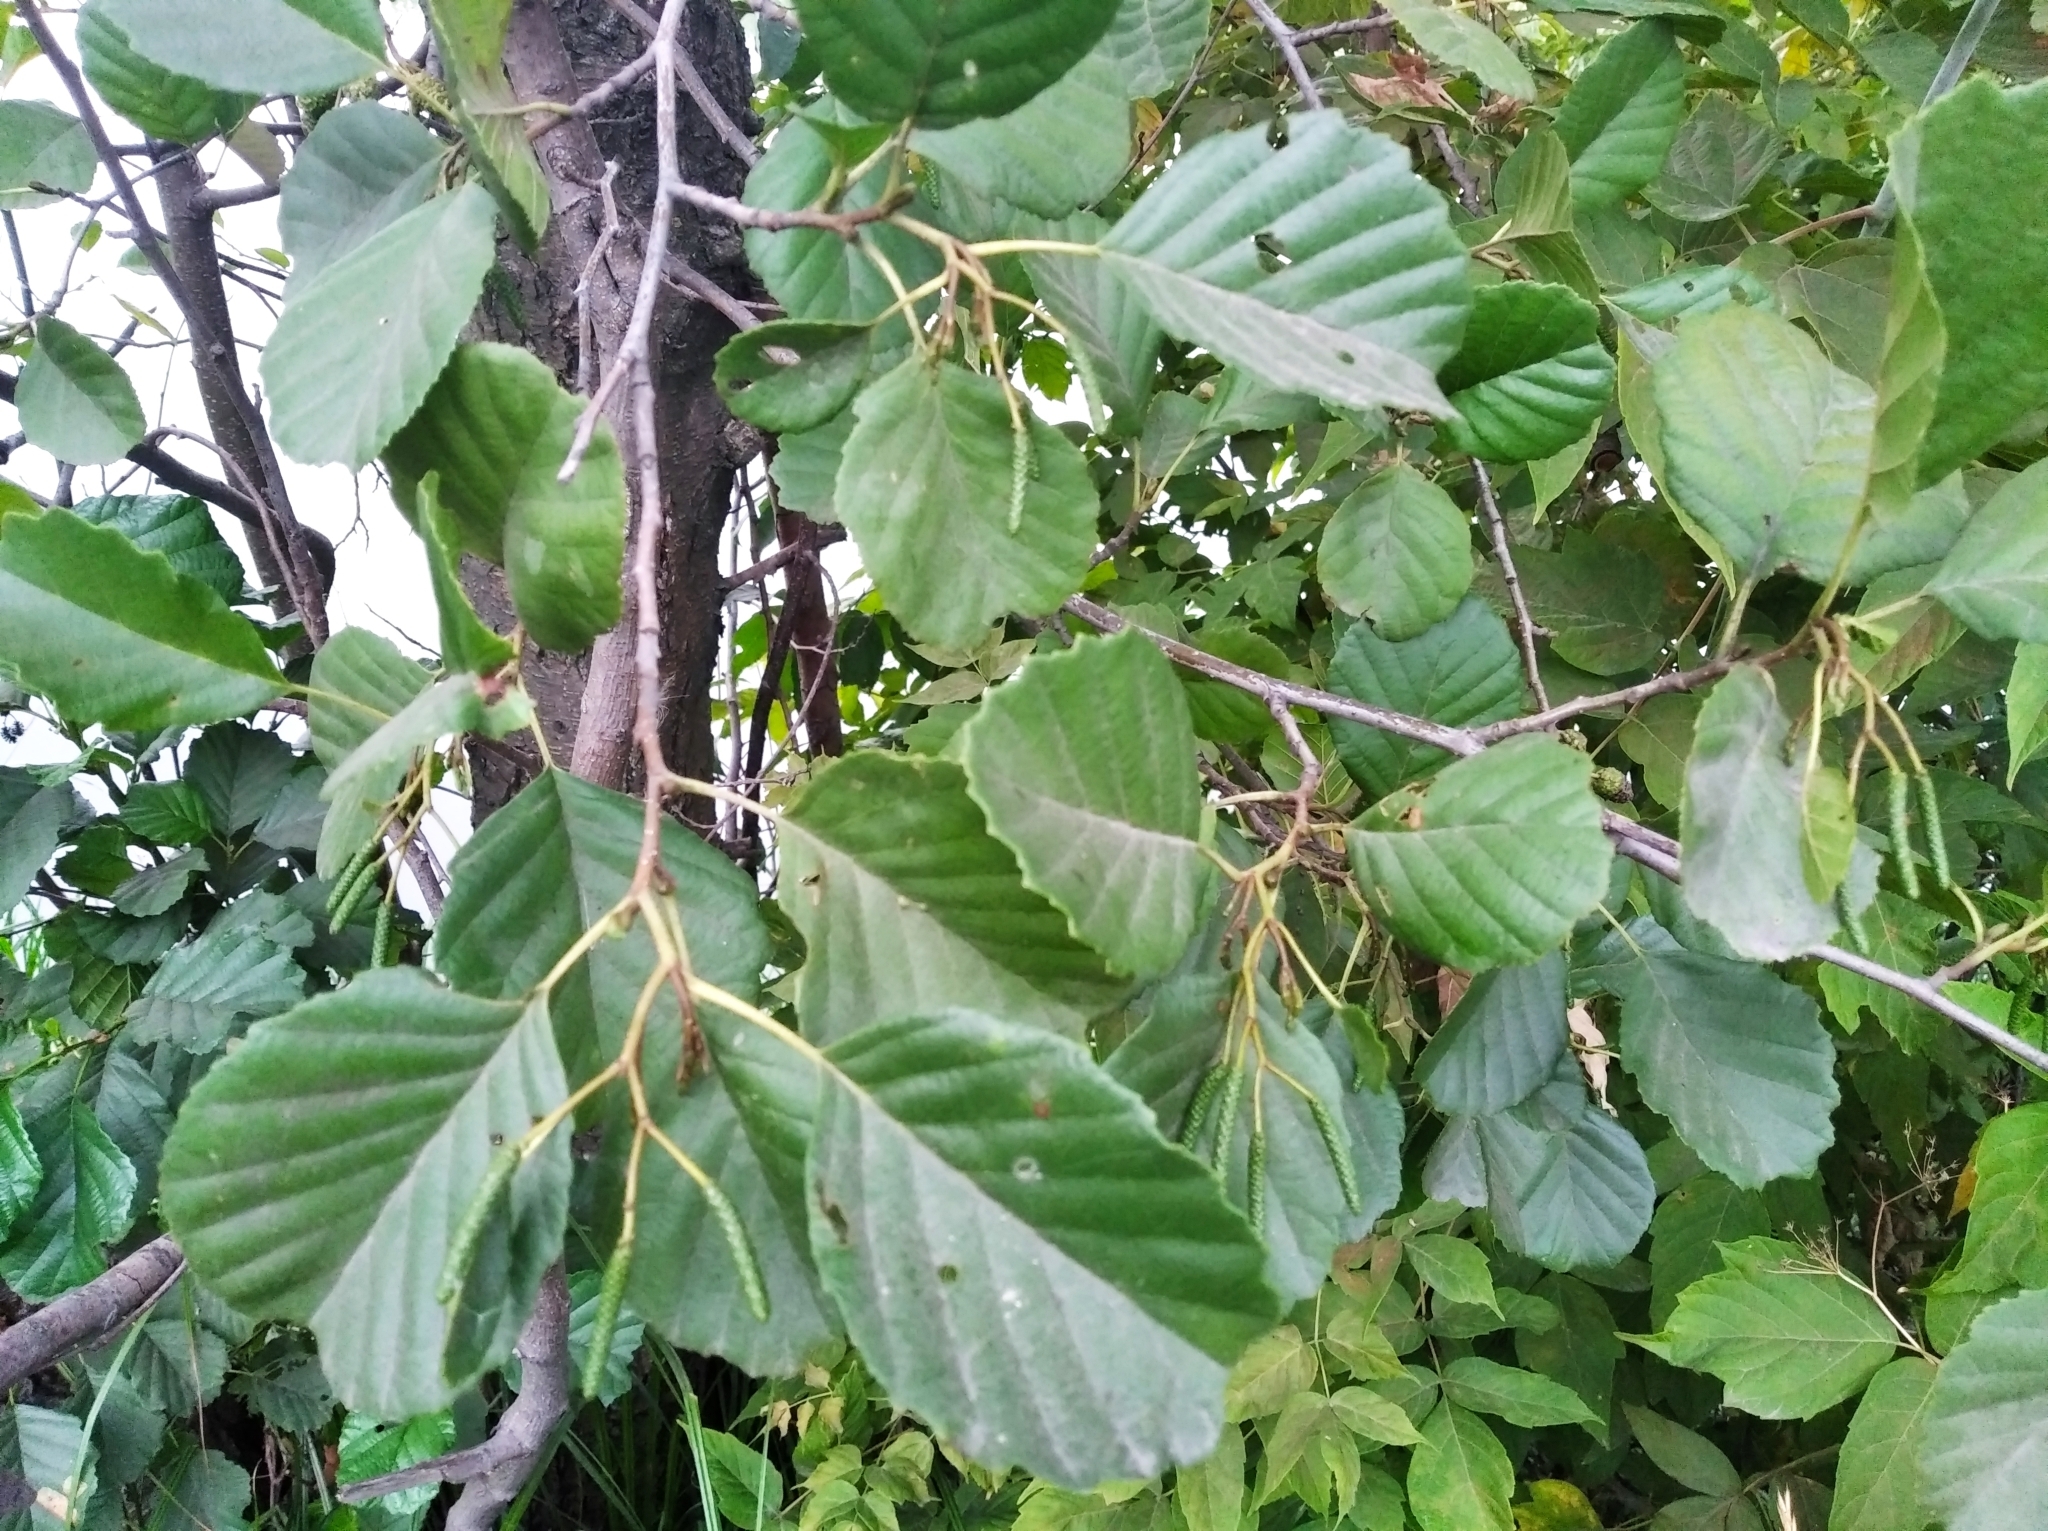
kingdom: Plantae
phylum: Tracheophyta
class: Magnoliopsida
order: Fagales
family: Betulaceae
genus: Alnus
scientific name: Alnus glutinosa
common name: Black alder
